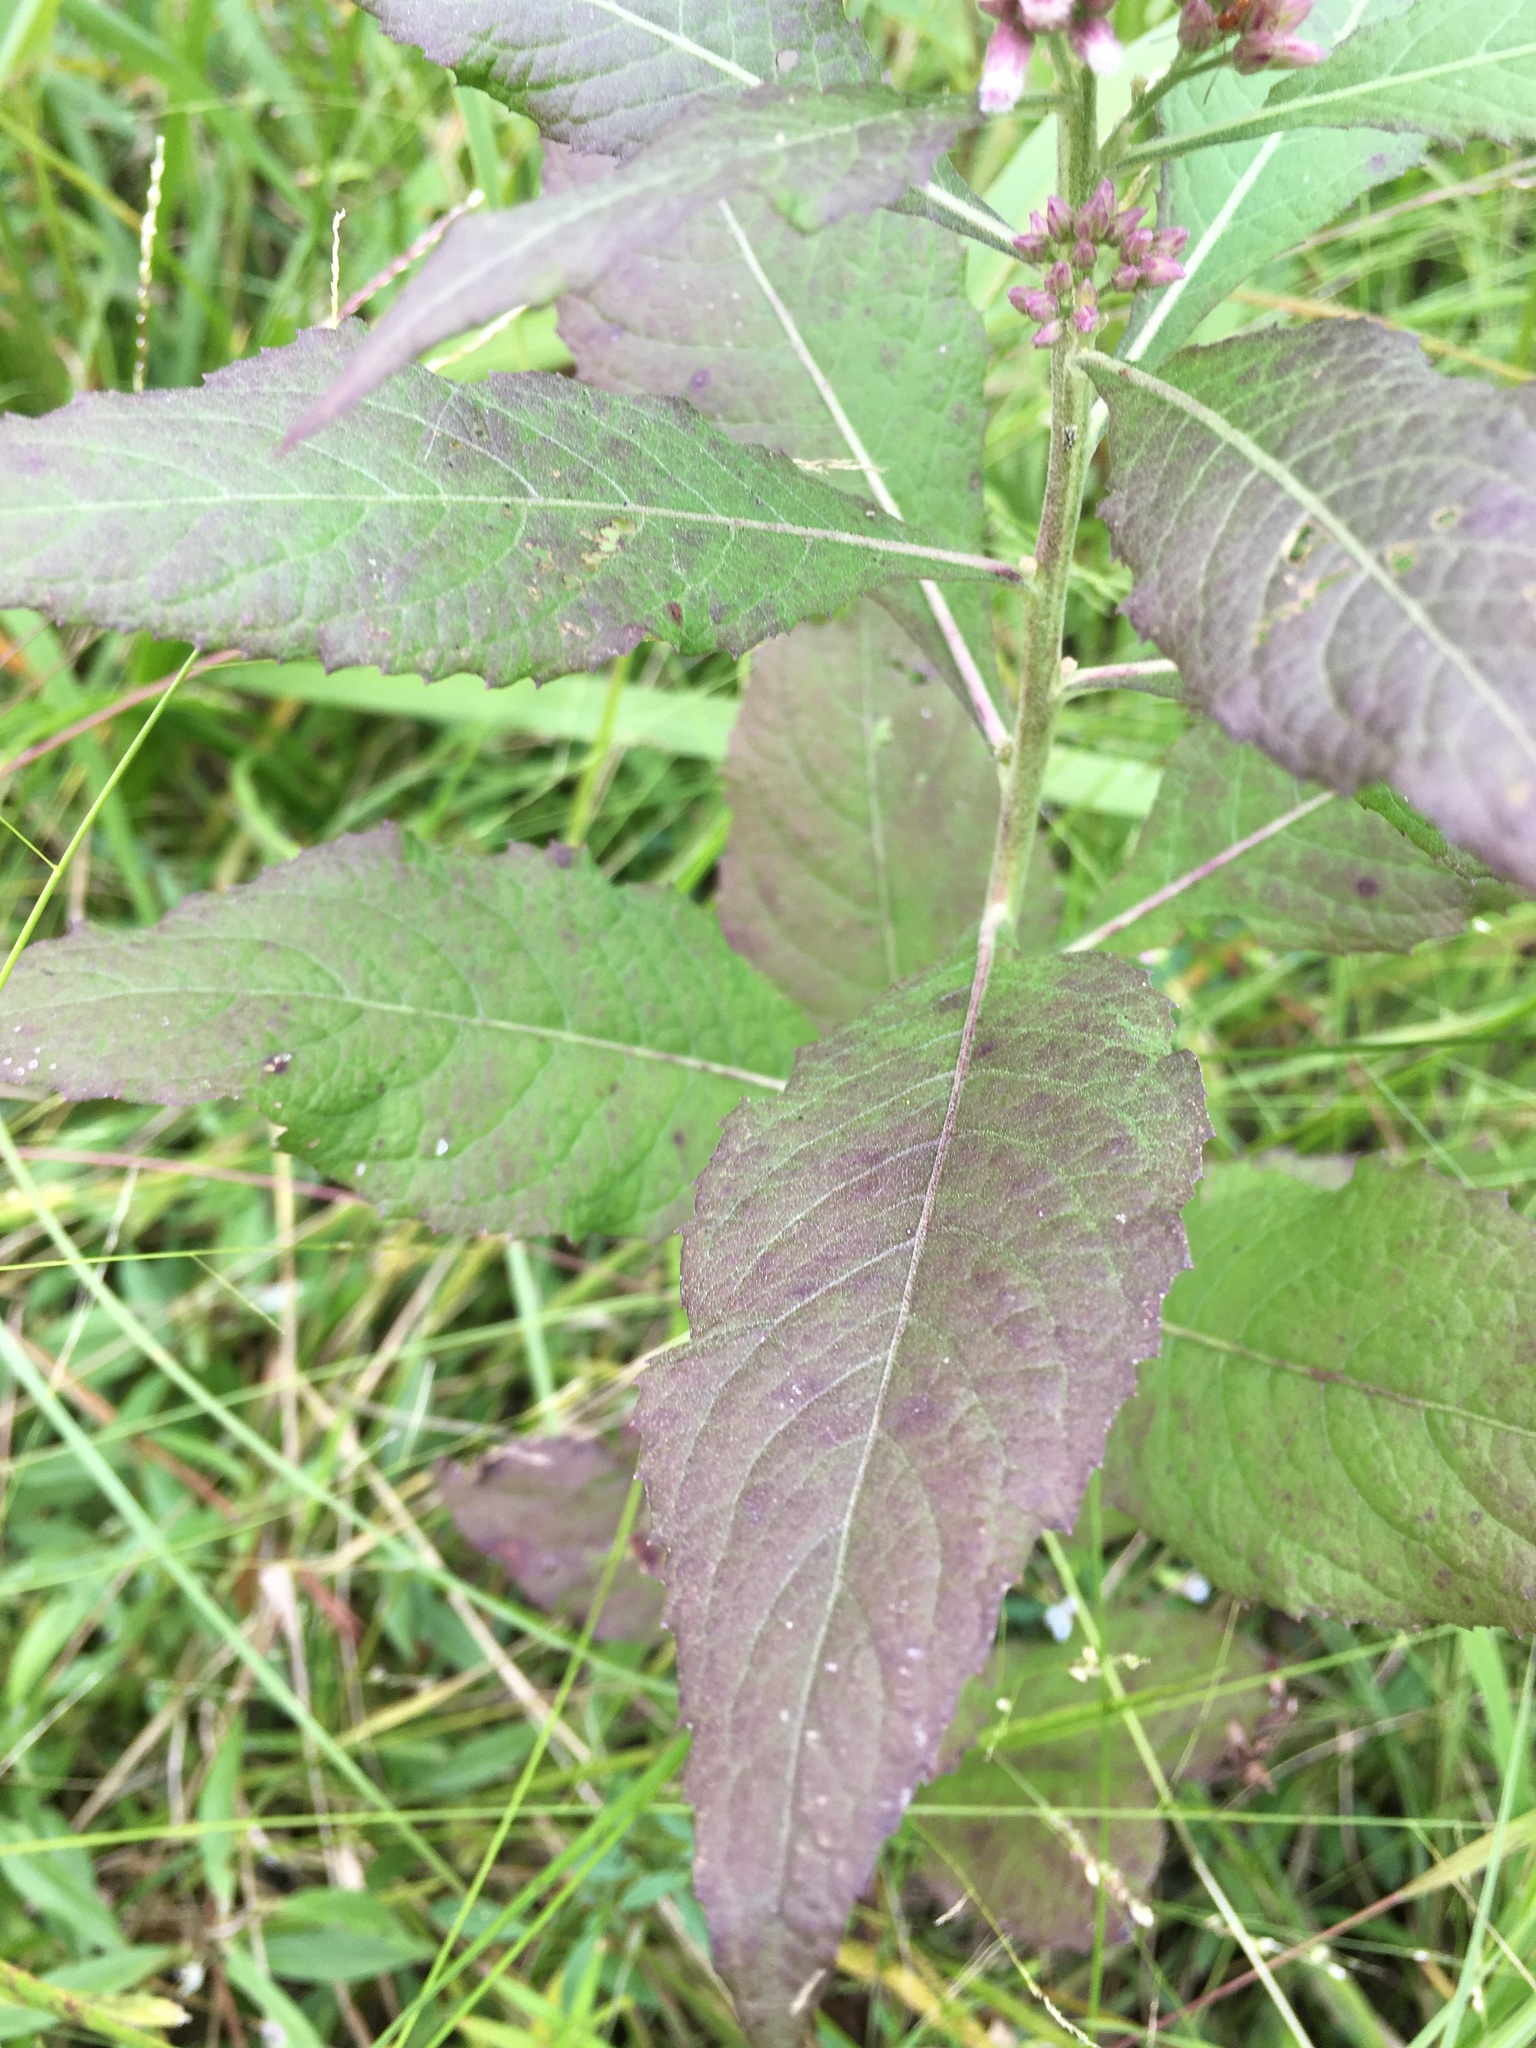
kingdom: Plantae
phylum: Tracheophyta
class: Magnoliopsida
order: Asterales
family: Asteraceae
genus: Pluchea
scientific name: Pluchea camphorata
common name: Camphor pluchea
